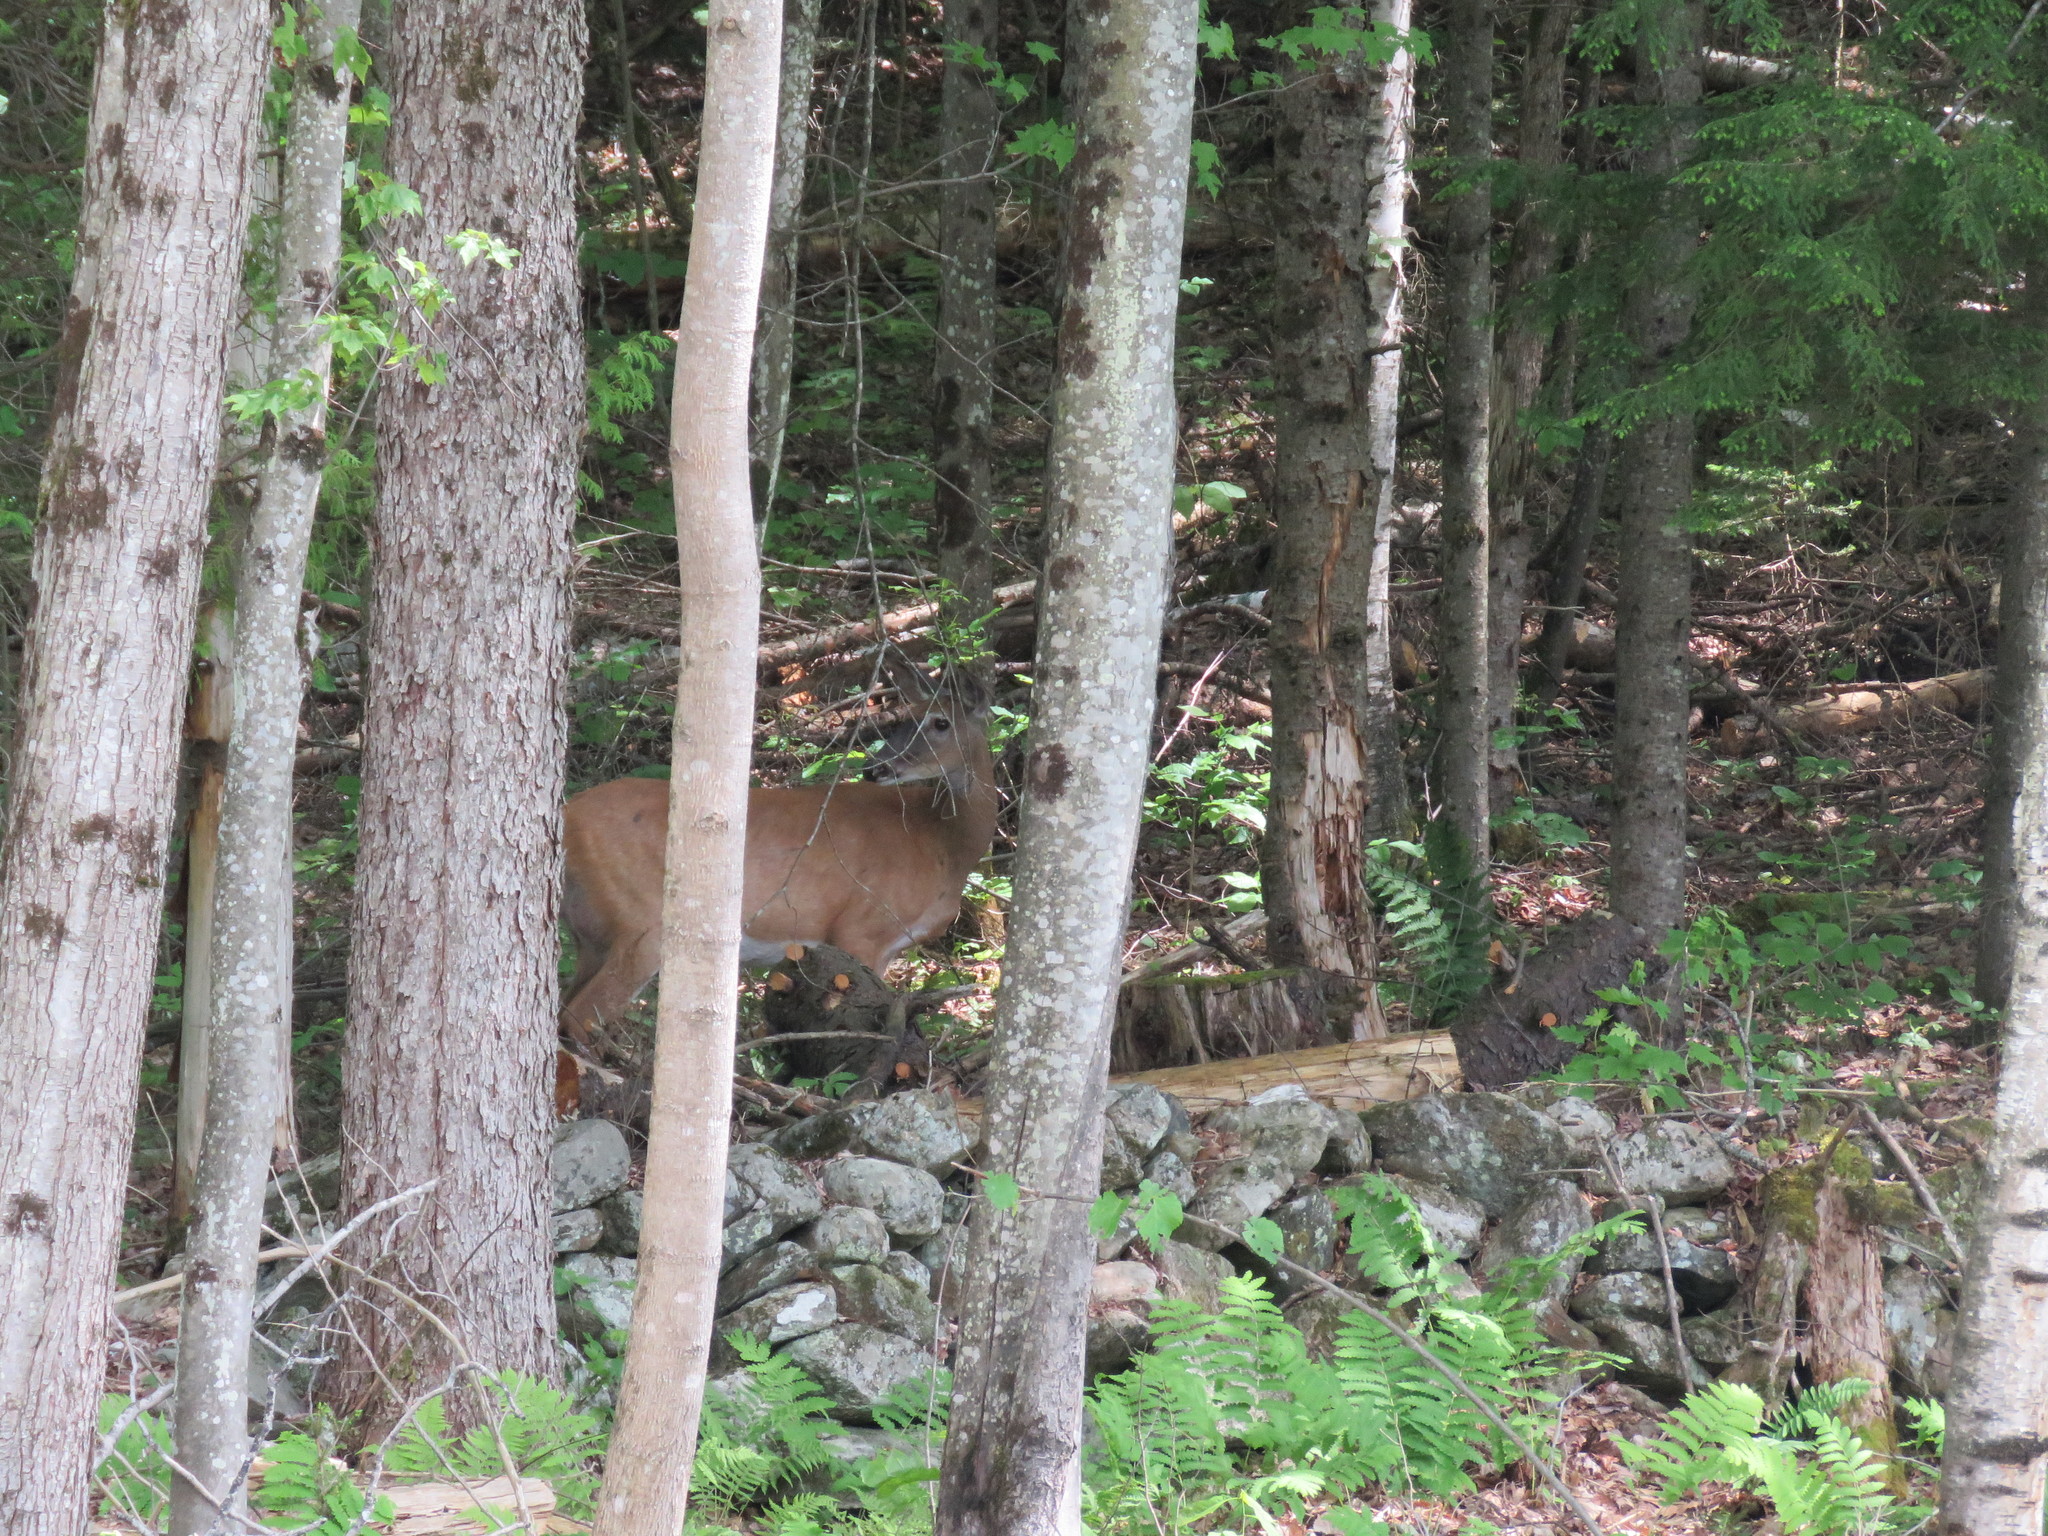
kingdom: Animalia
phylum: Chordata
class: Mammalia
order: Artiodactyla
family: Cervidae
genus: Odocoileus
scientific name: Odocoileus virginianus
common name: White-tailed deer
